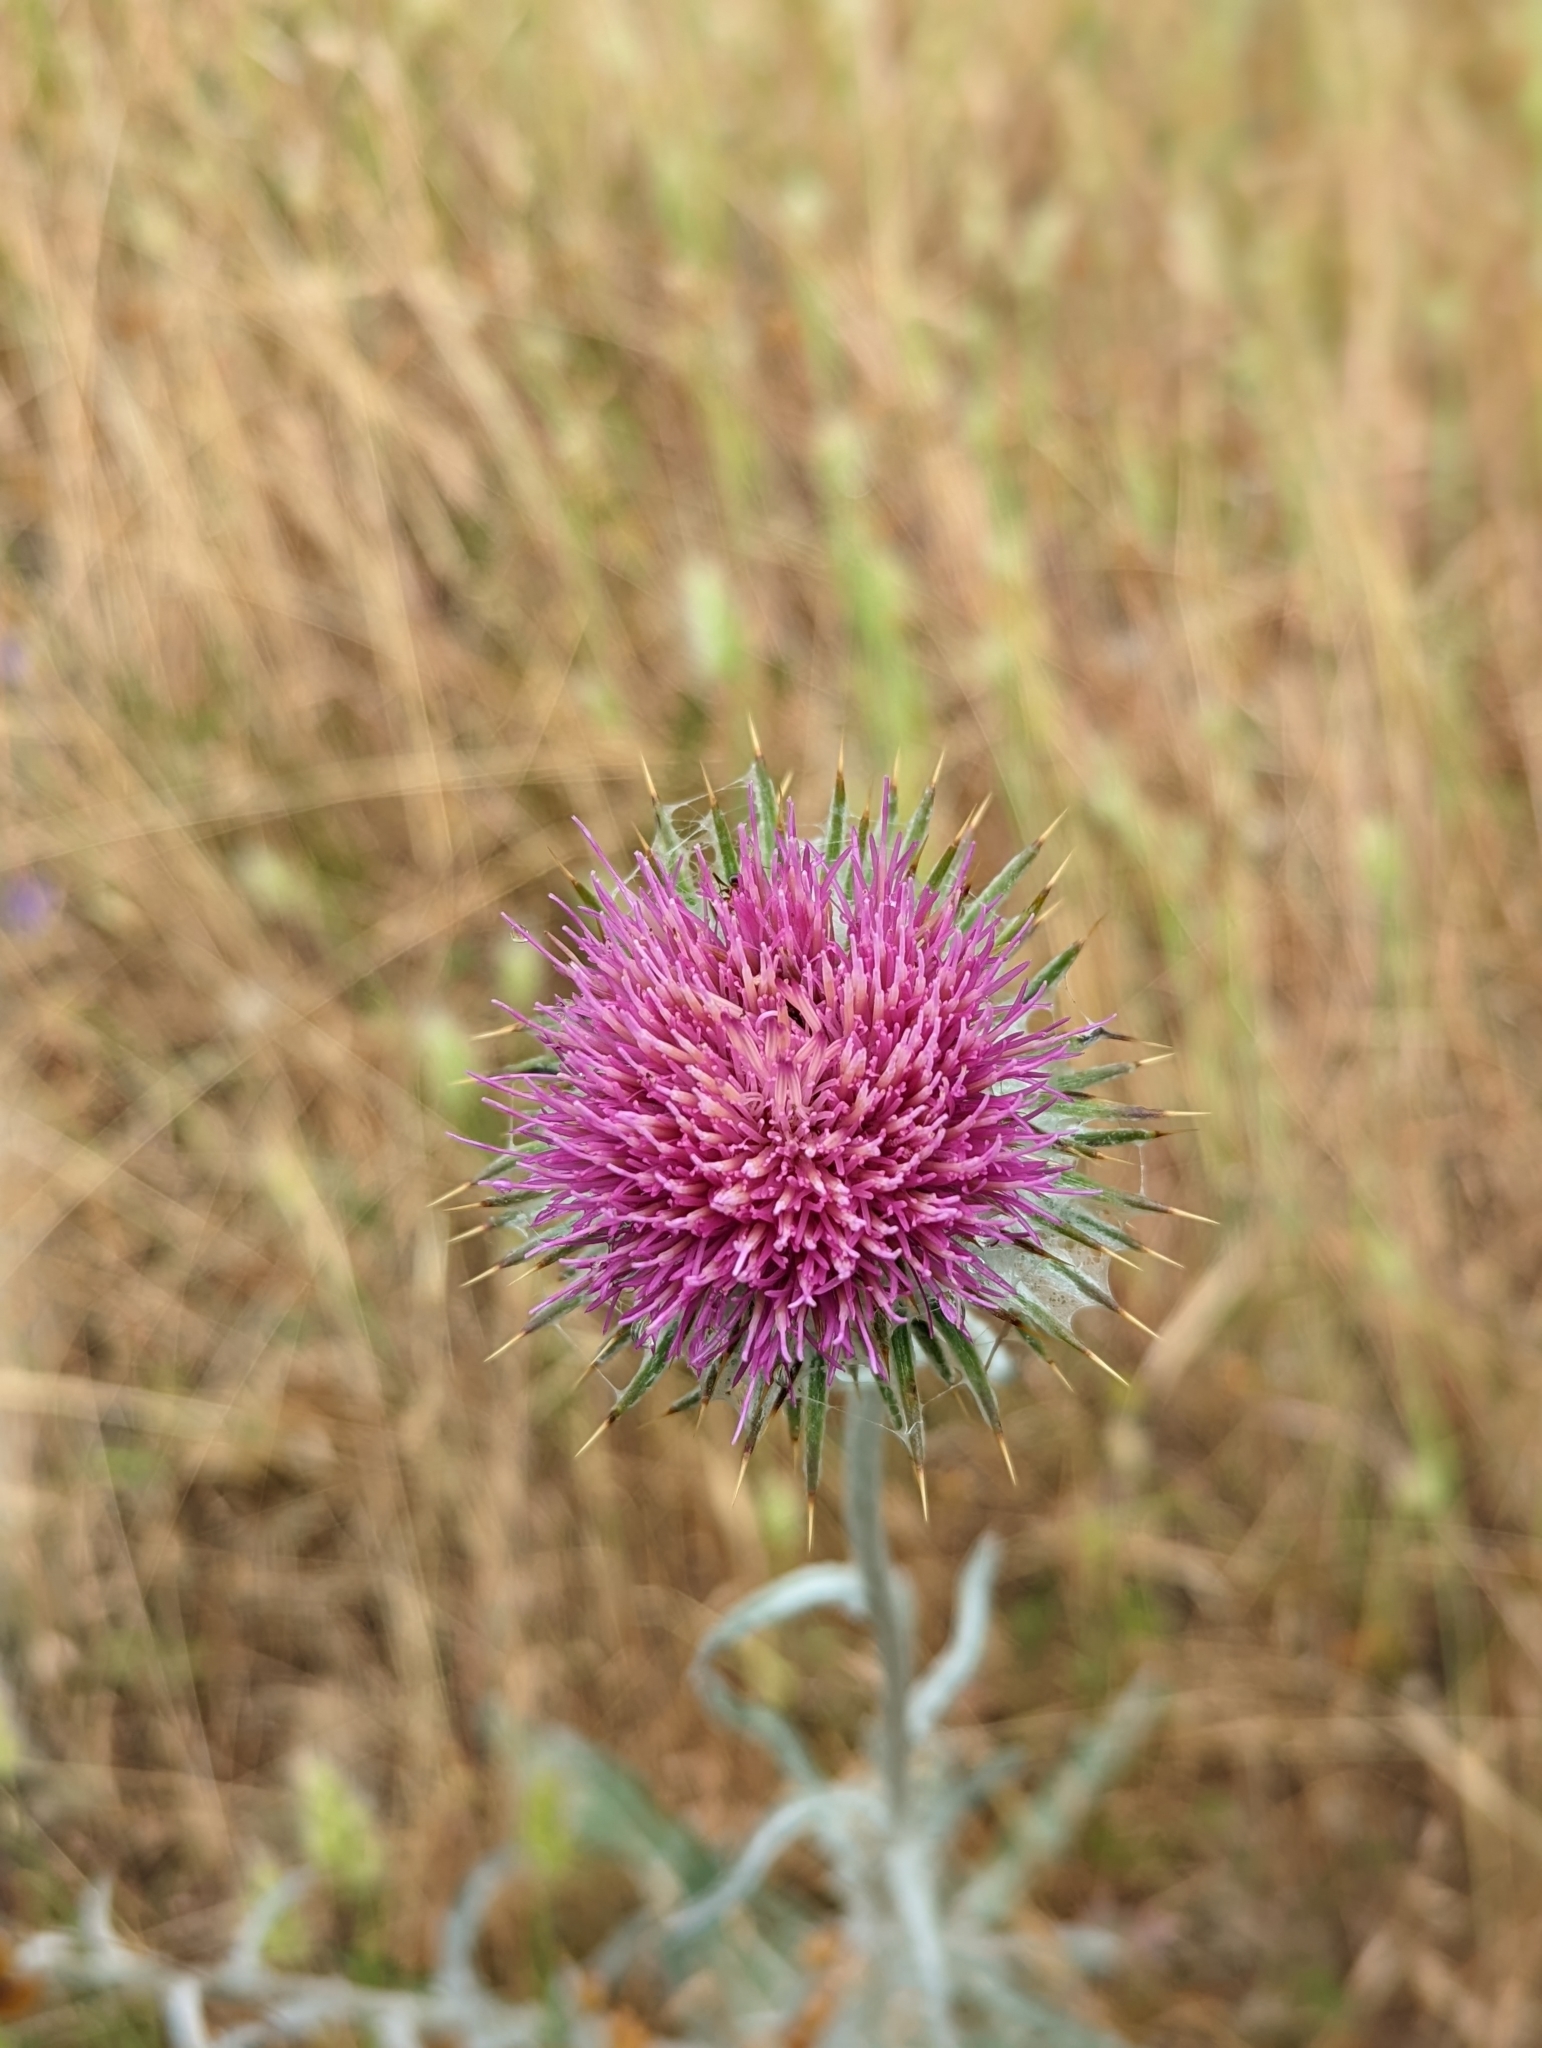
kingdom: Plantae
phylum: Tracheophyta
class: Magnoliopsida
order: Asterales
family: Asteraceae
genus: Cirsium
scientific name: Cirsium occidentale
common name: Western thistle
